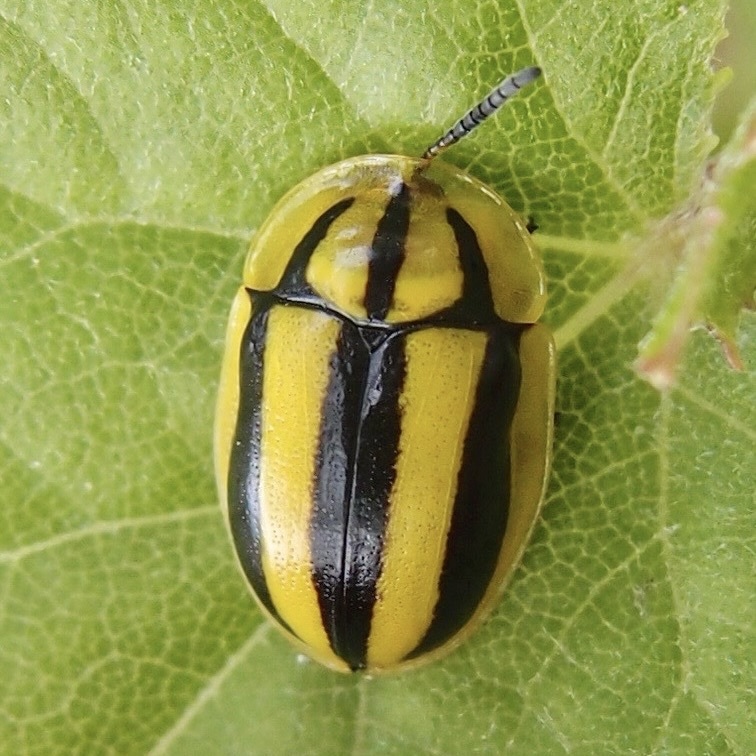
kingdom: Animalia
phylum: Arthropoda
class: Insecta
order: Coleoptera
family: Chrysomelidae
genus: Physonota
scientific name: Physonota disjuncta
